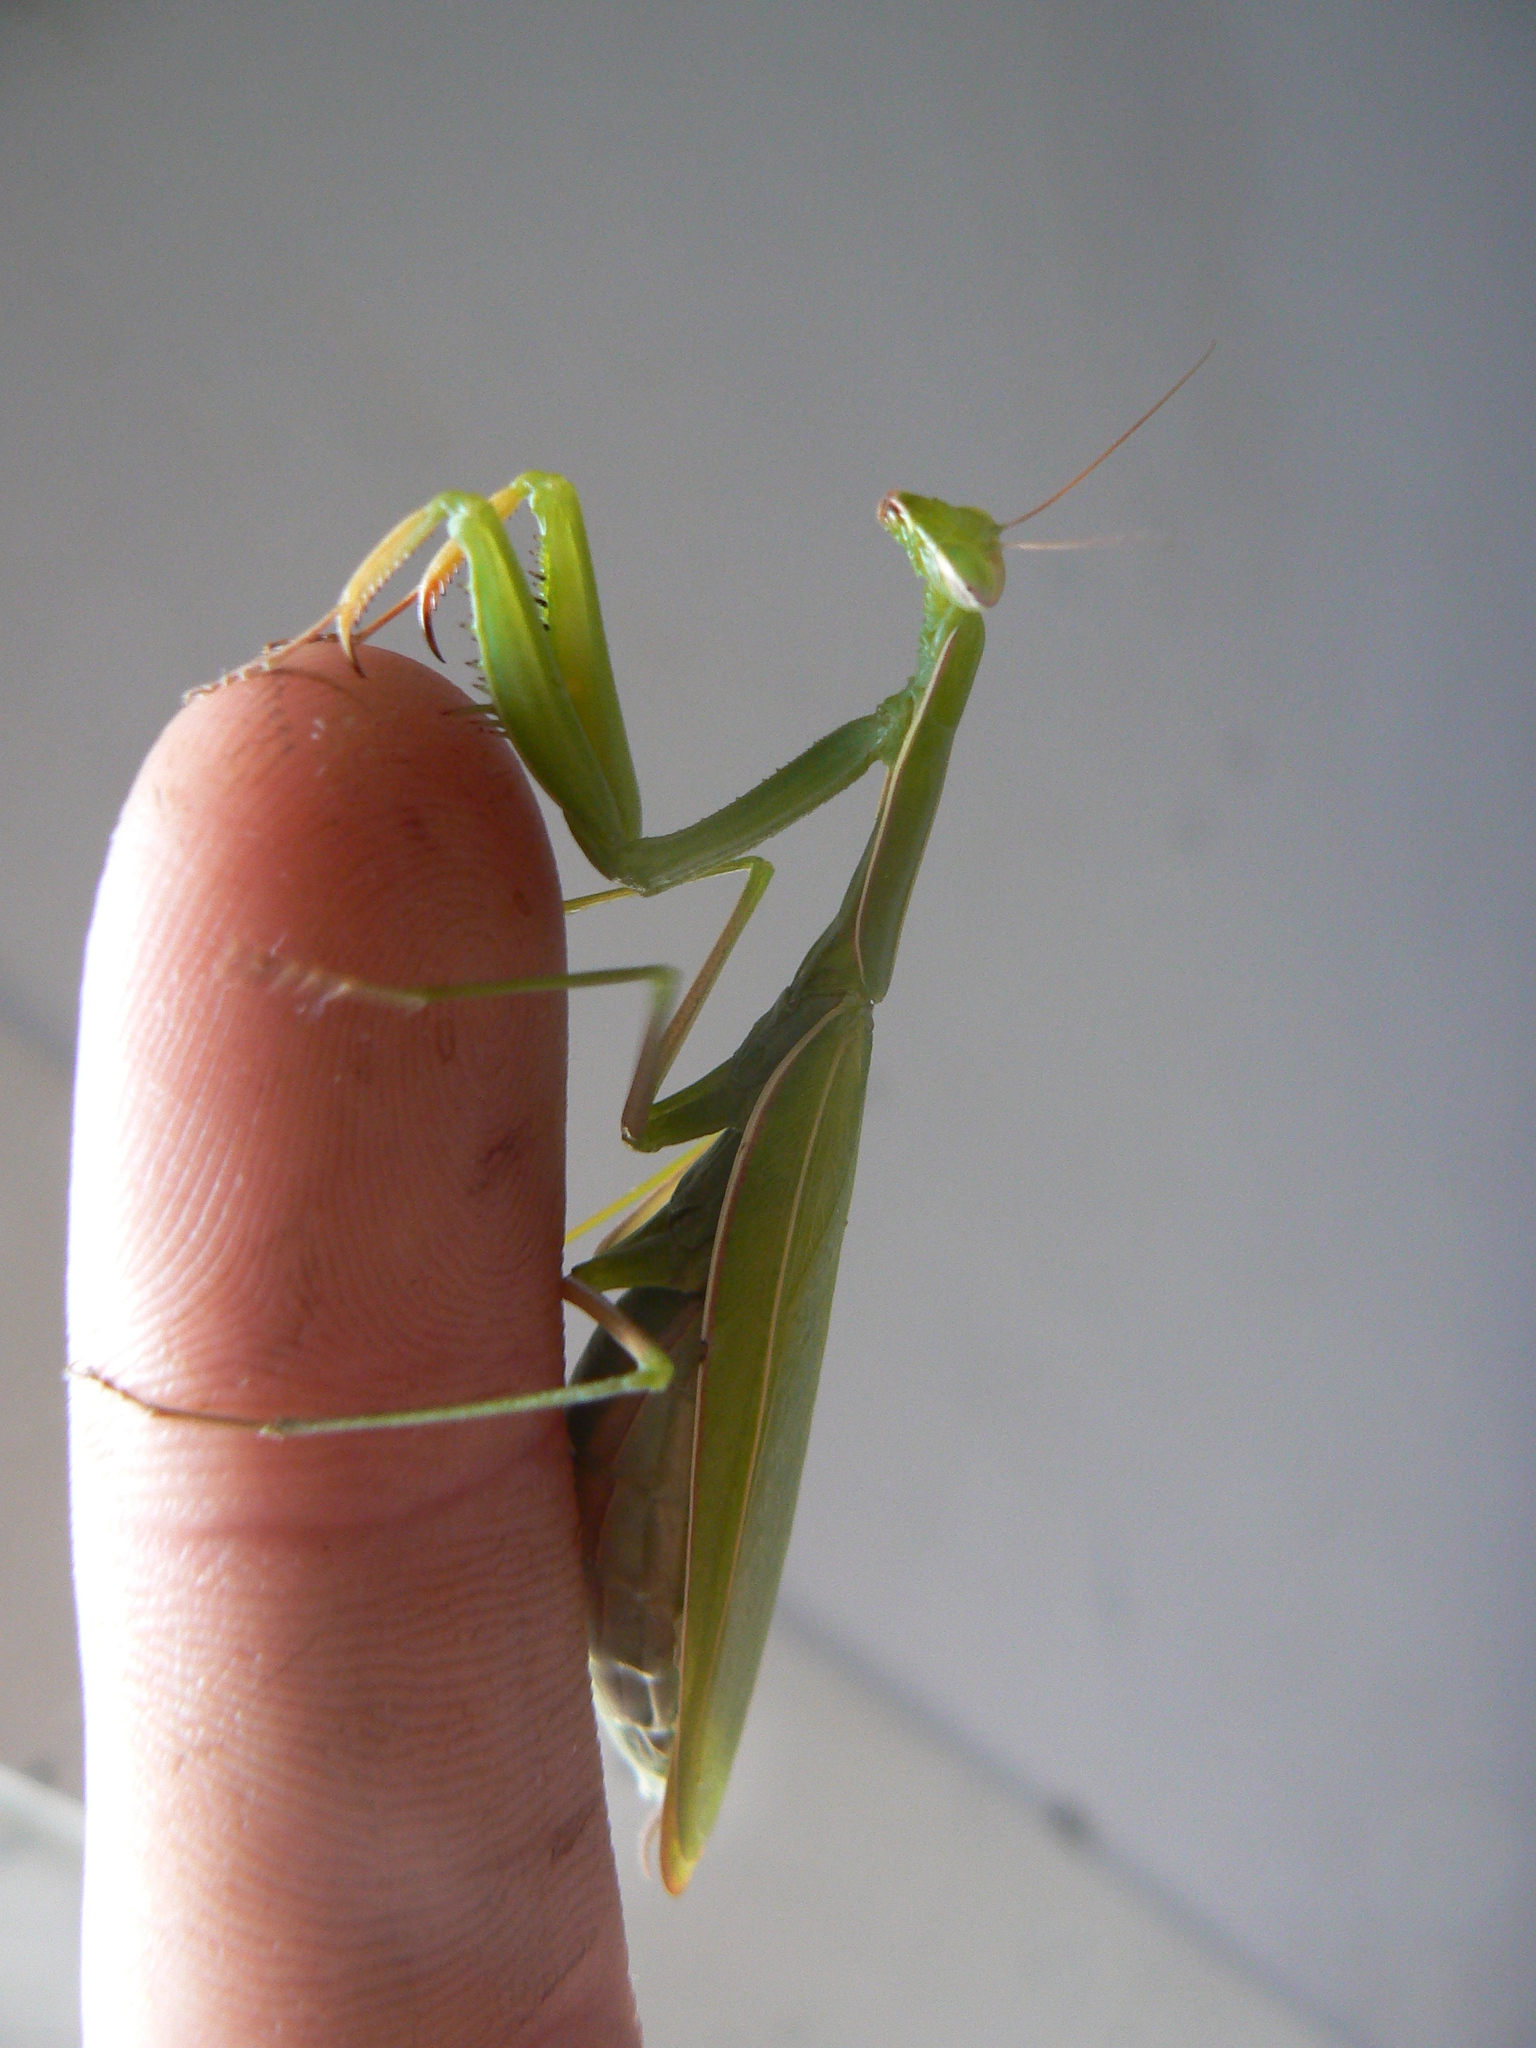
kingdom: Animalia
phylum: Arthropoda
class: Insecta
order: Mantodea
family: Mantidae
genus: Mantis
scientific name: Mantis religiosa
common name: Praying mantis
